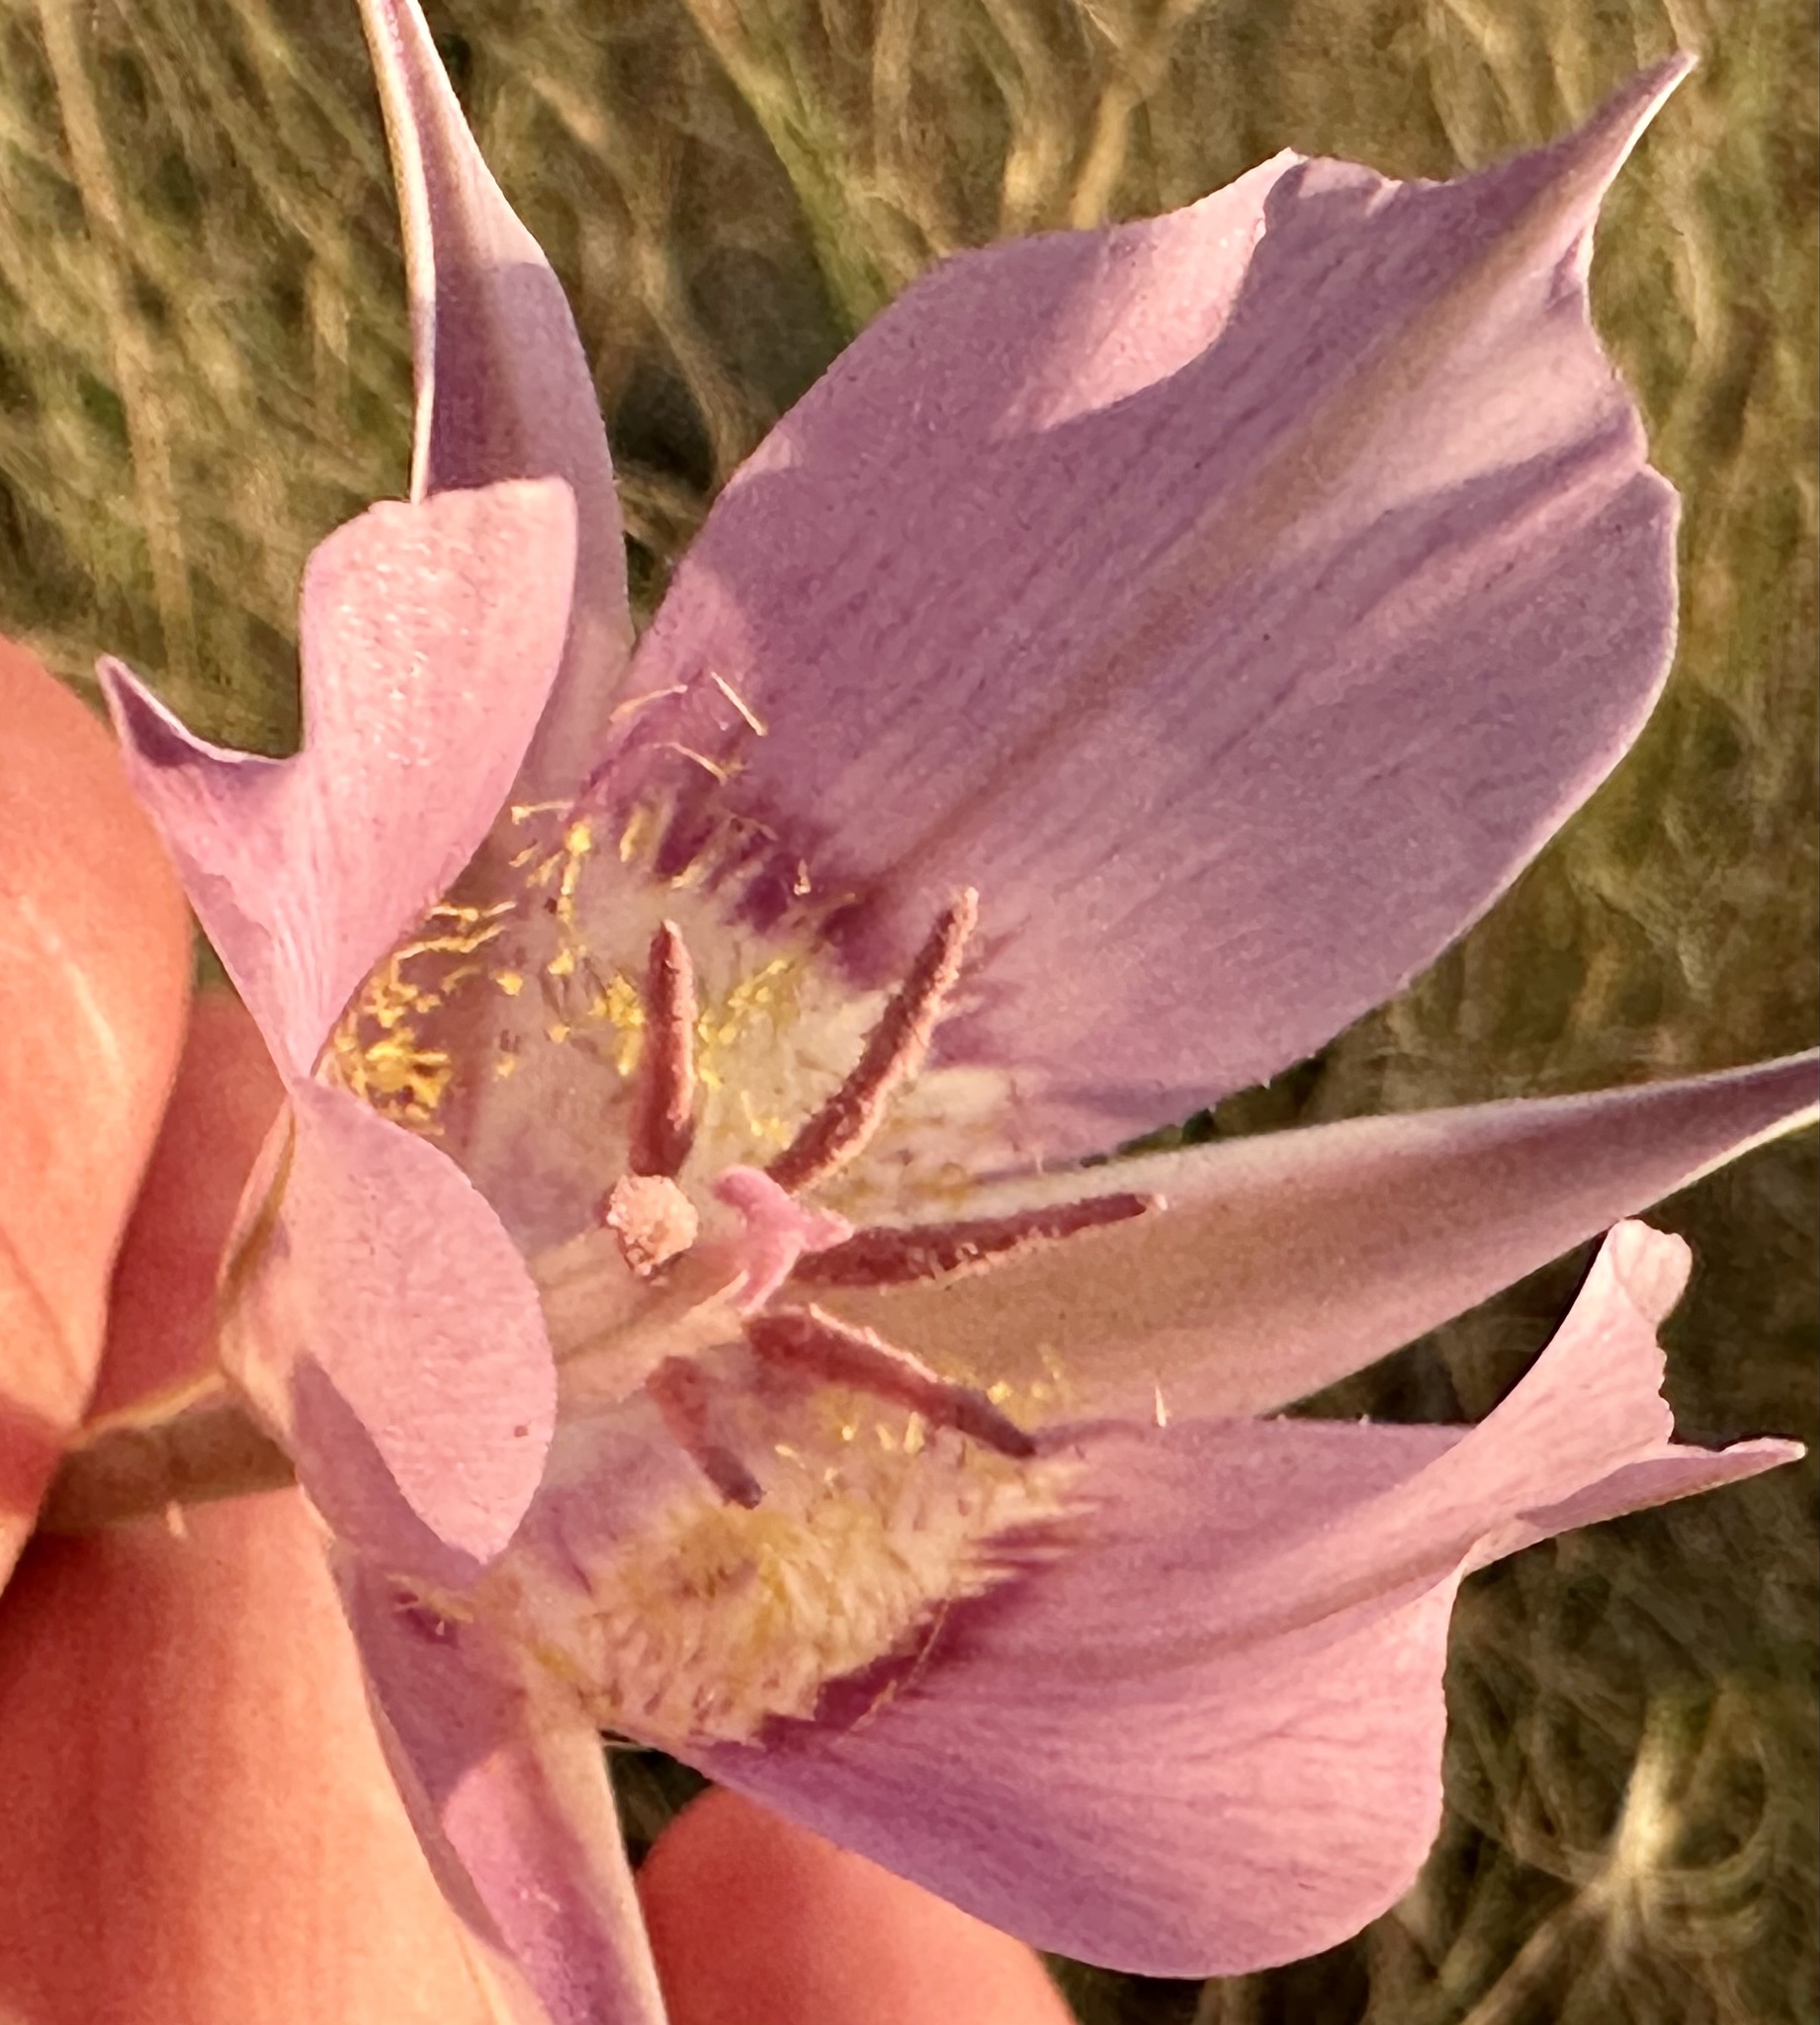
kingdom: Plantae
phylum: Tracheophyta
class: Liliopsida
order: Liliales
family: Liliaceae
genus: Calochortus
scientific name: Calochortus macrocarpus
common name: Green-band mariposa lily
